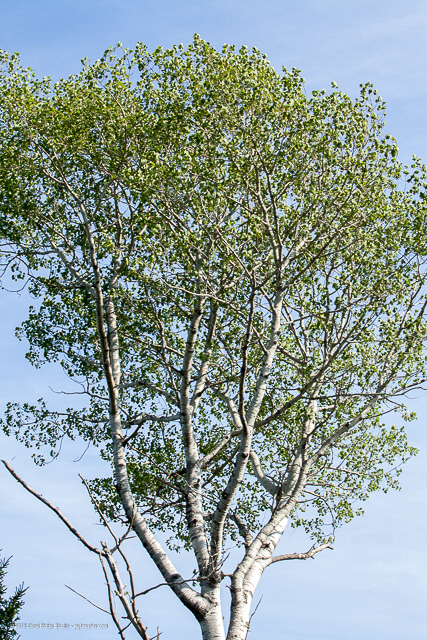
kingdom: Plantae
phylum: Tracheophyta
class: Magnoliopsida
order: Malpighiales
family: Salicaceae
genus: Populus
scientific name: Populus tremuloides
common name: Quaking aspen
